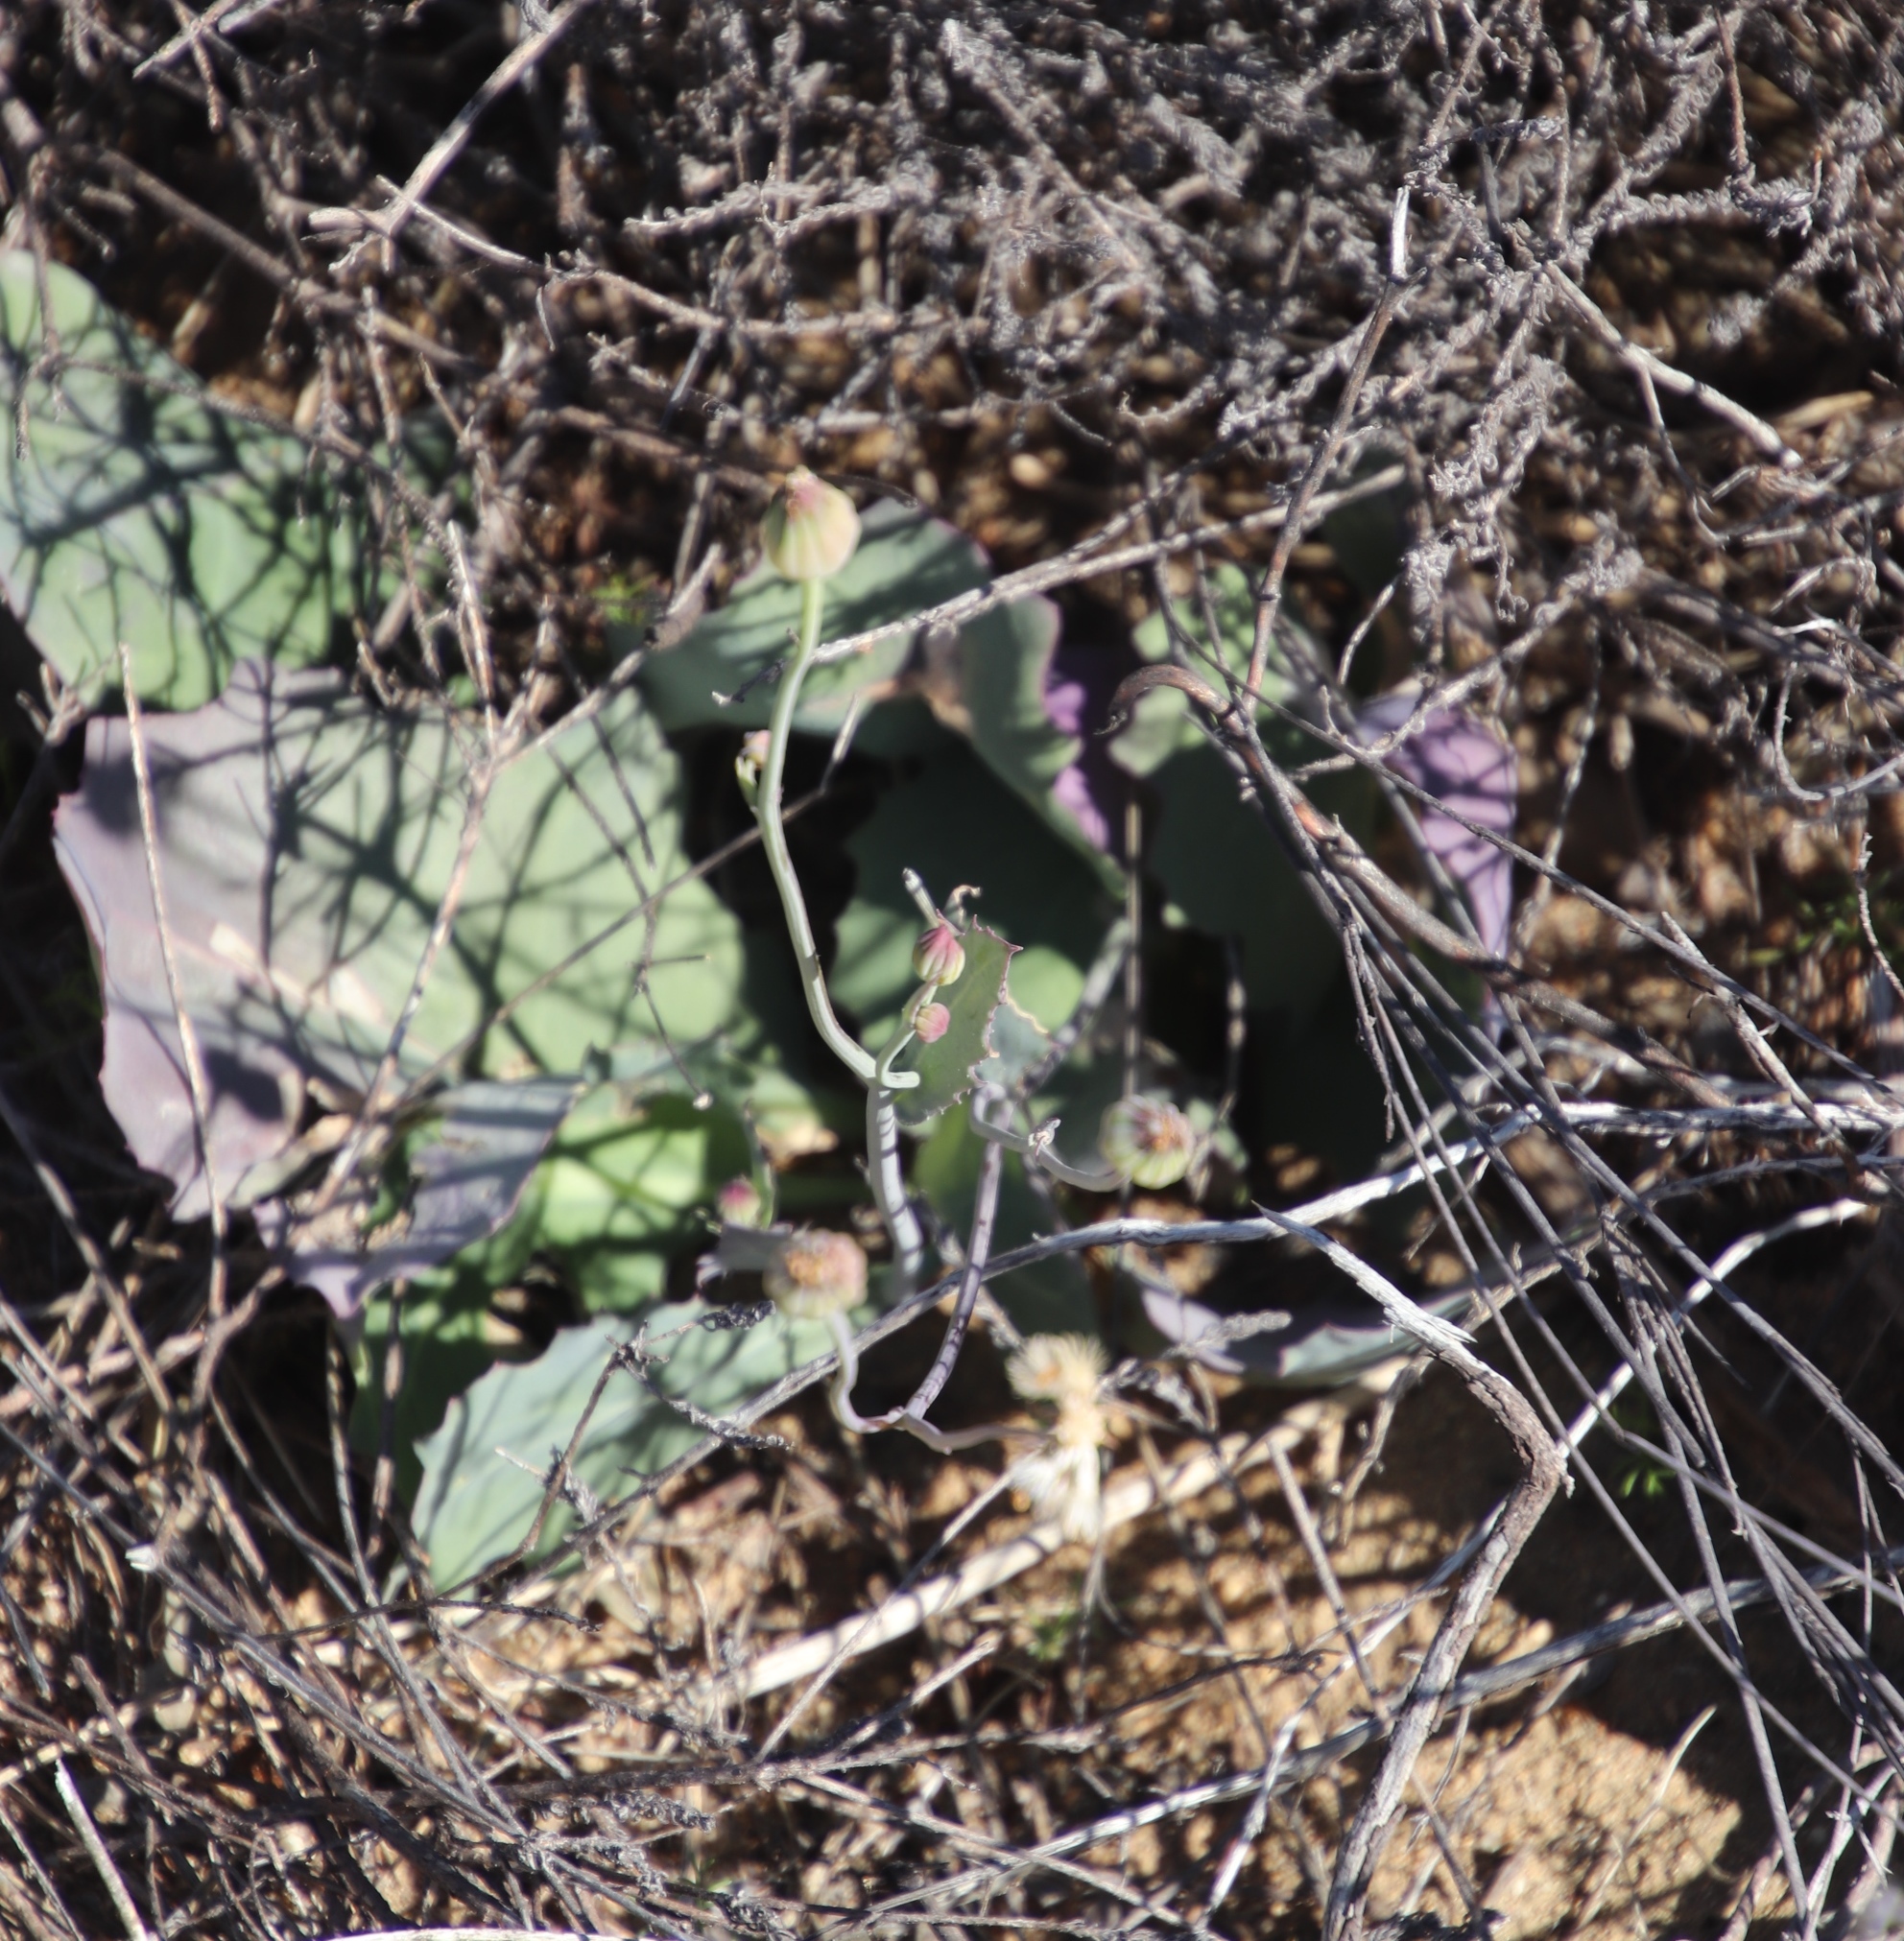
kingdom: Plantae
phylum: Tracheophyta
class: Magnoliopsida
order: Asterales
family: Asteraceae
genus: Othonna
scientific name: Othonna petiolaris
